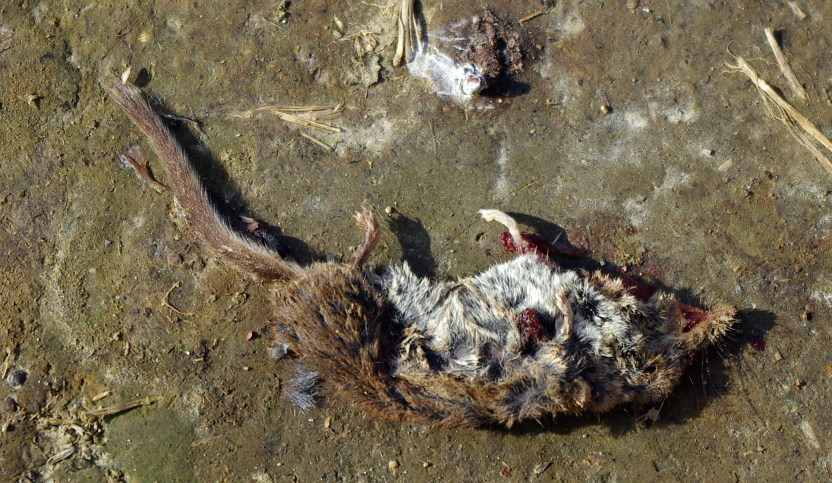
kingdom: Animalia
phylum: Chordata
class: Mammalia
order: Soricomorpha
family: Soricidae
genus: Sorex
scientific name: Sorex minutus
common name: Eurasian pygmy shrew
